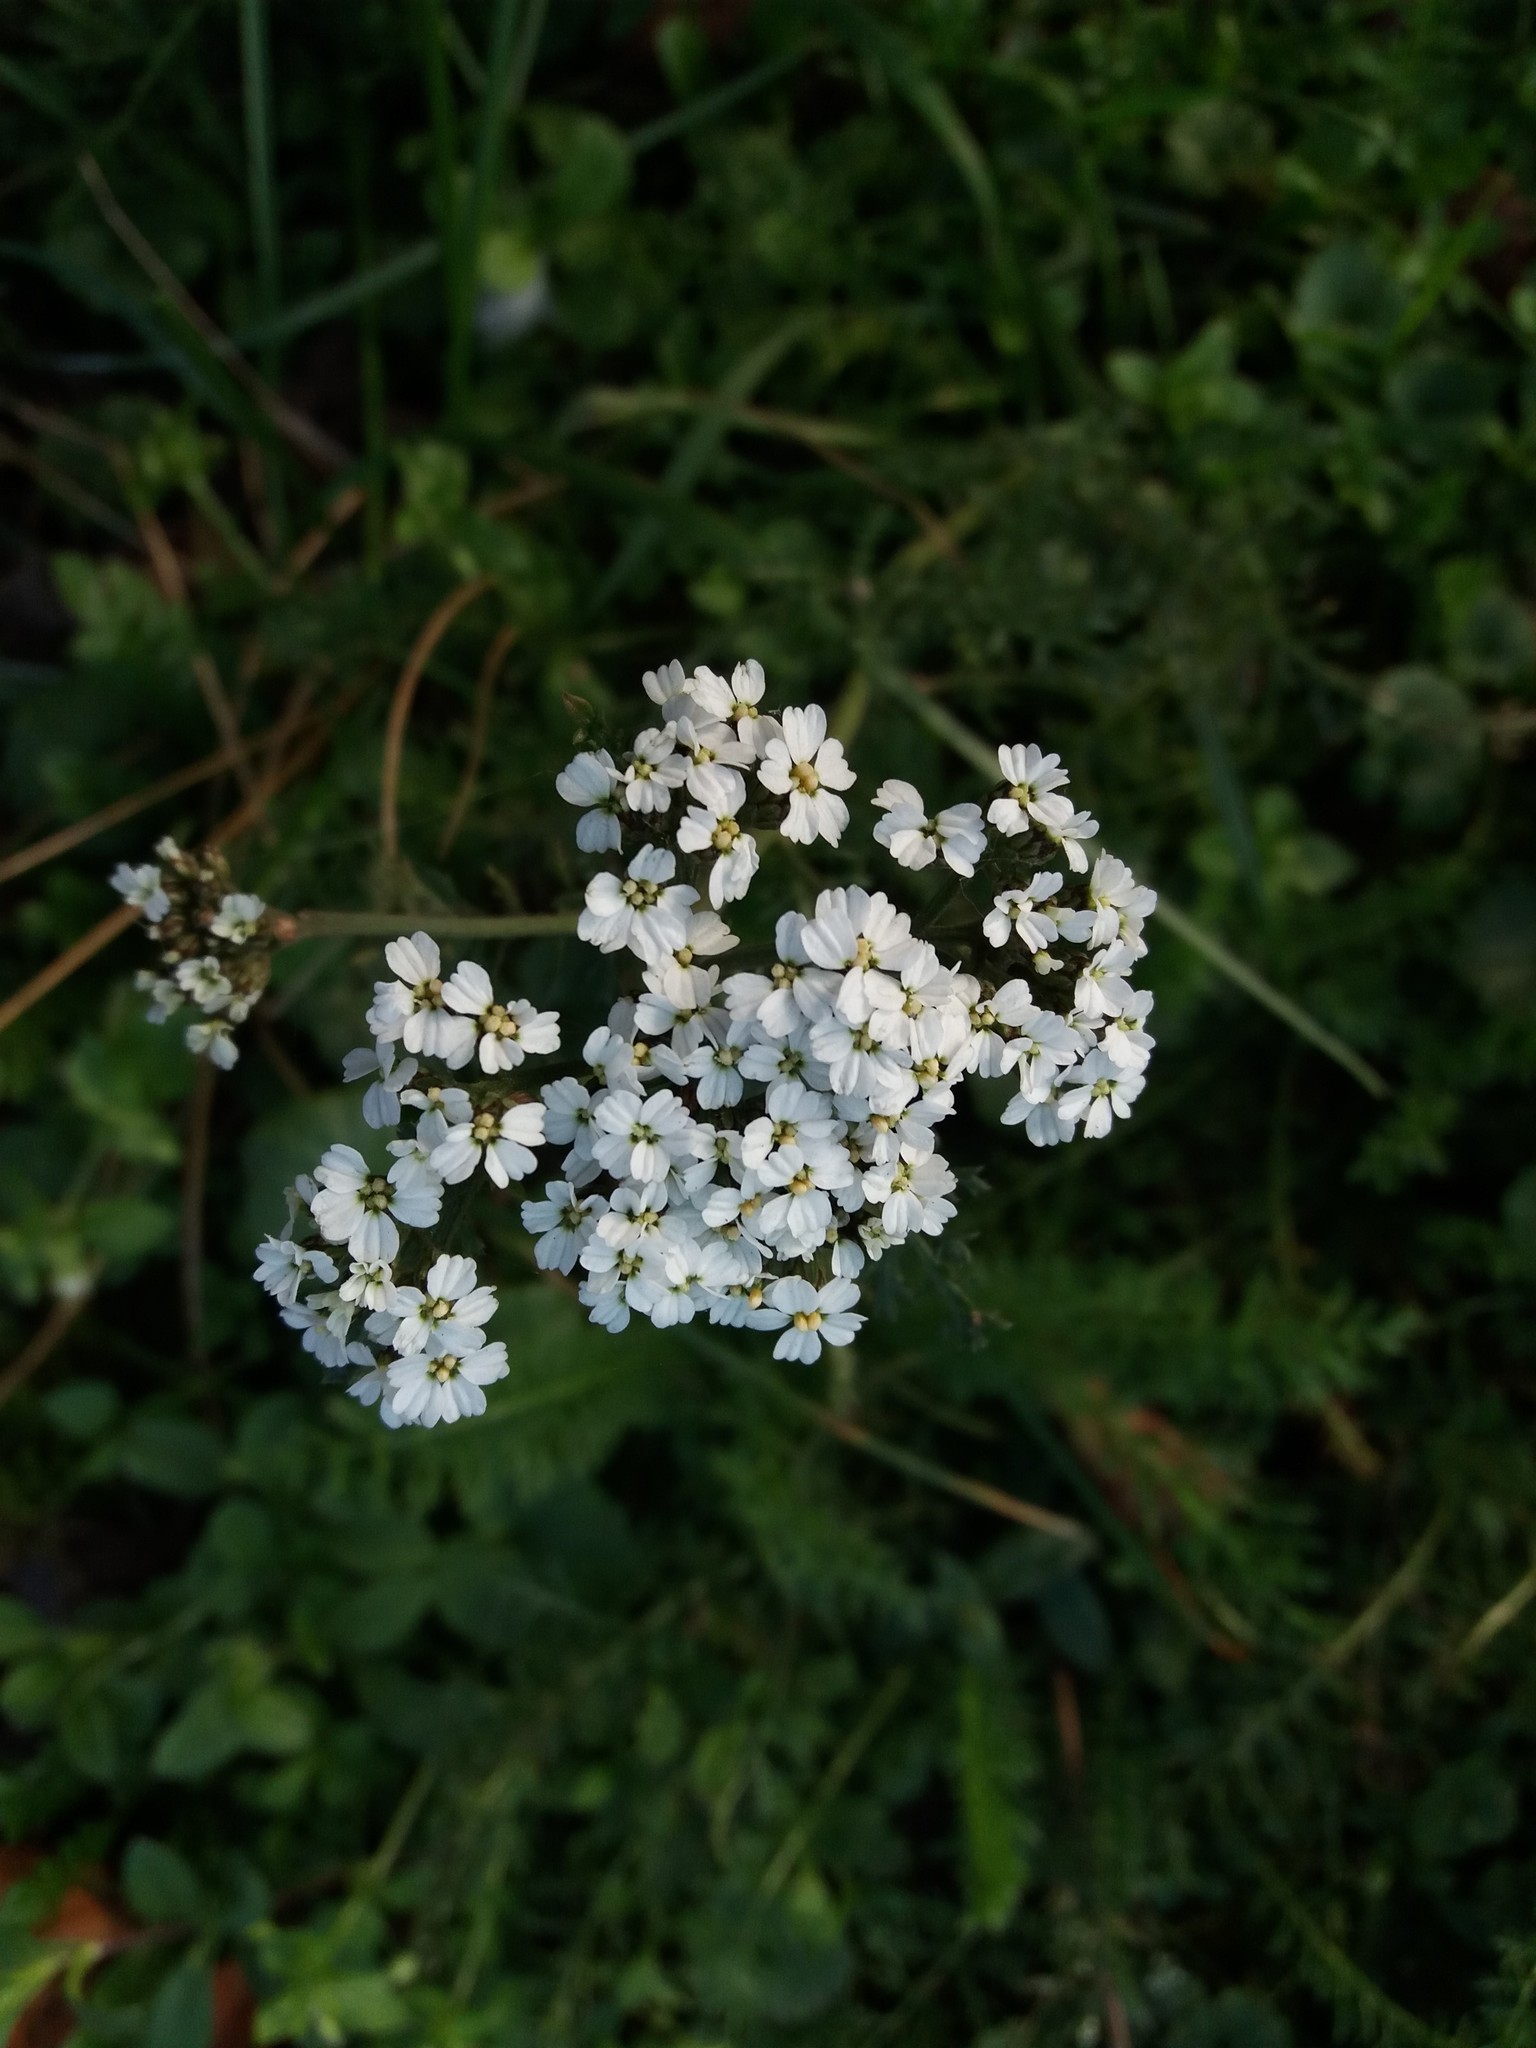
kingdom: Plantae
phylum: Tracheophyta
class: Magnoliopsida
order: Asterales
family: Asteraceae
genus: Achillea
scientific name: Achillea millefolium
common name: Yarrow
